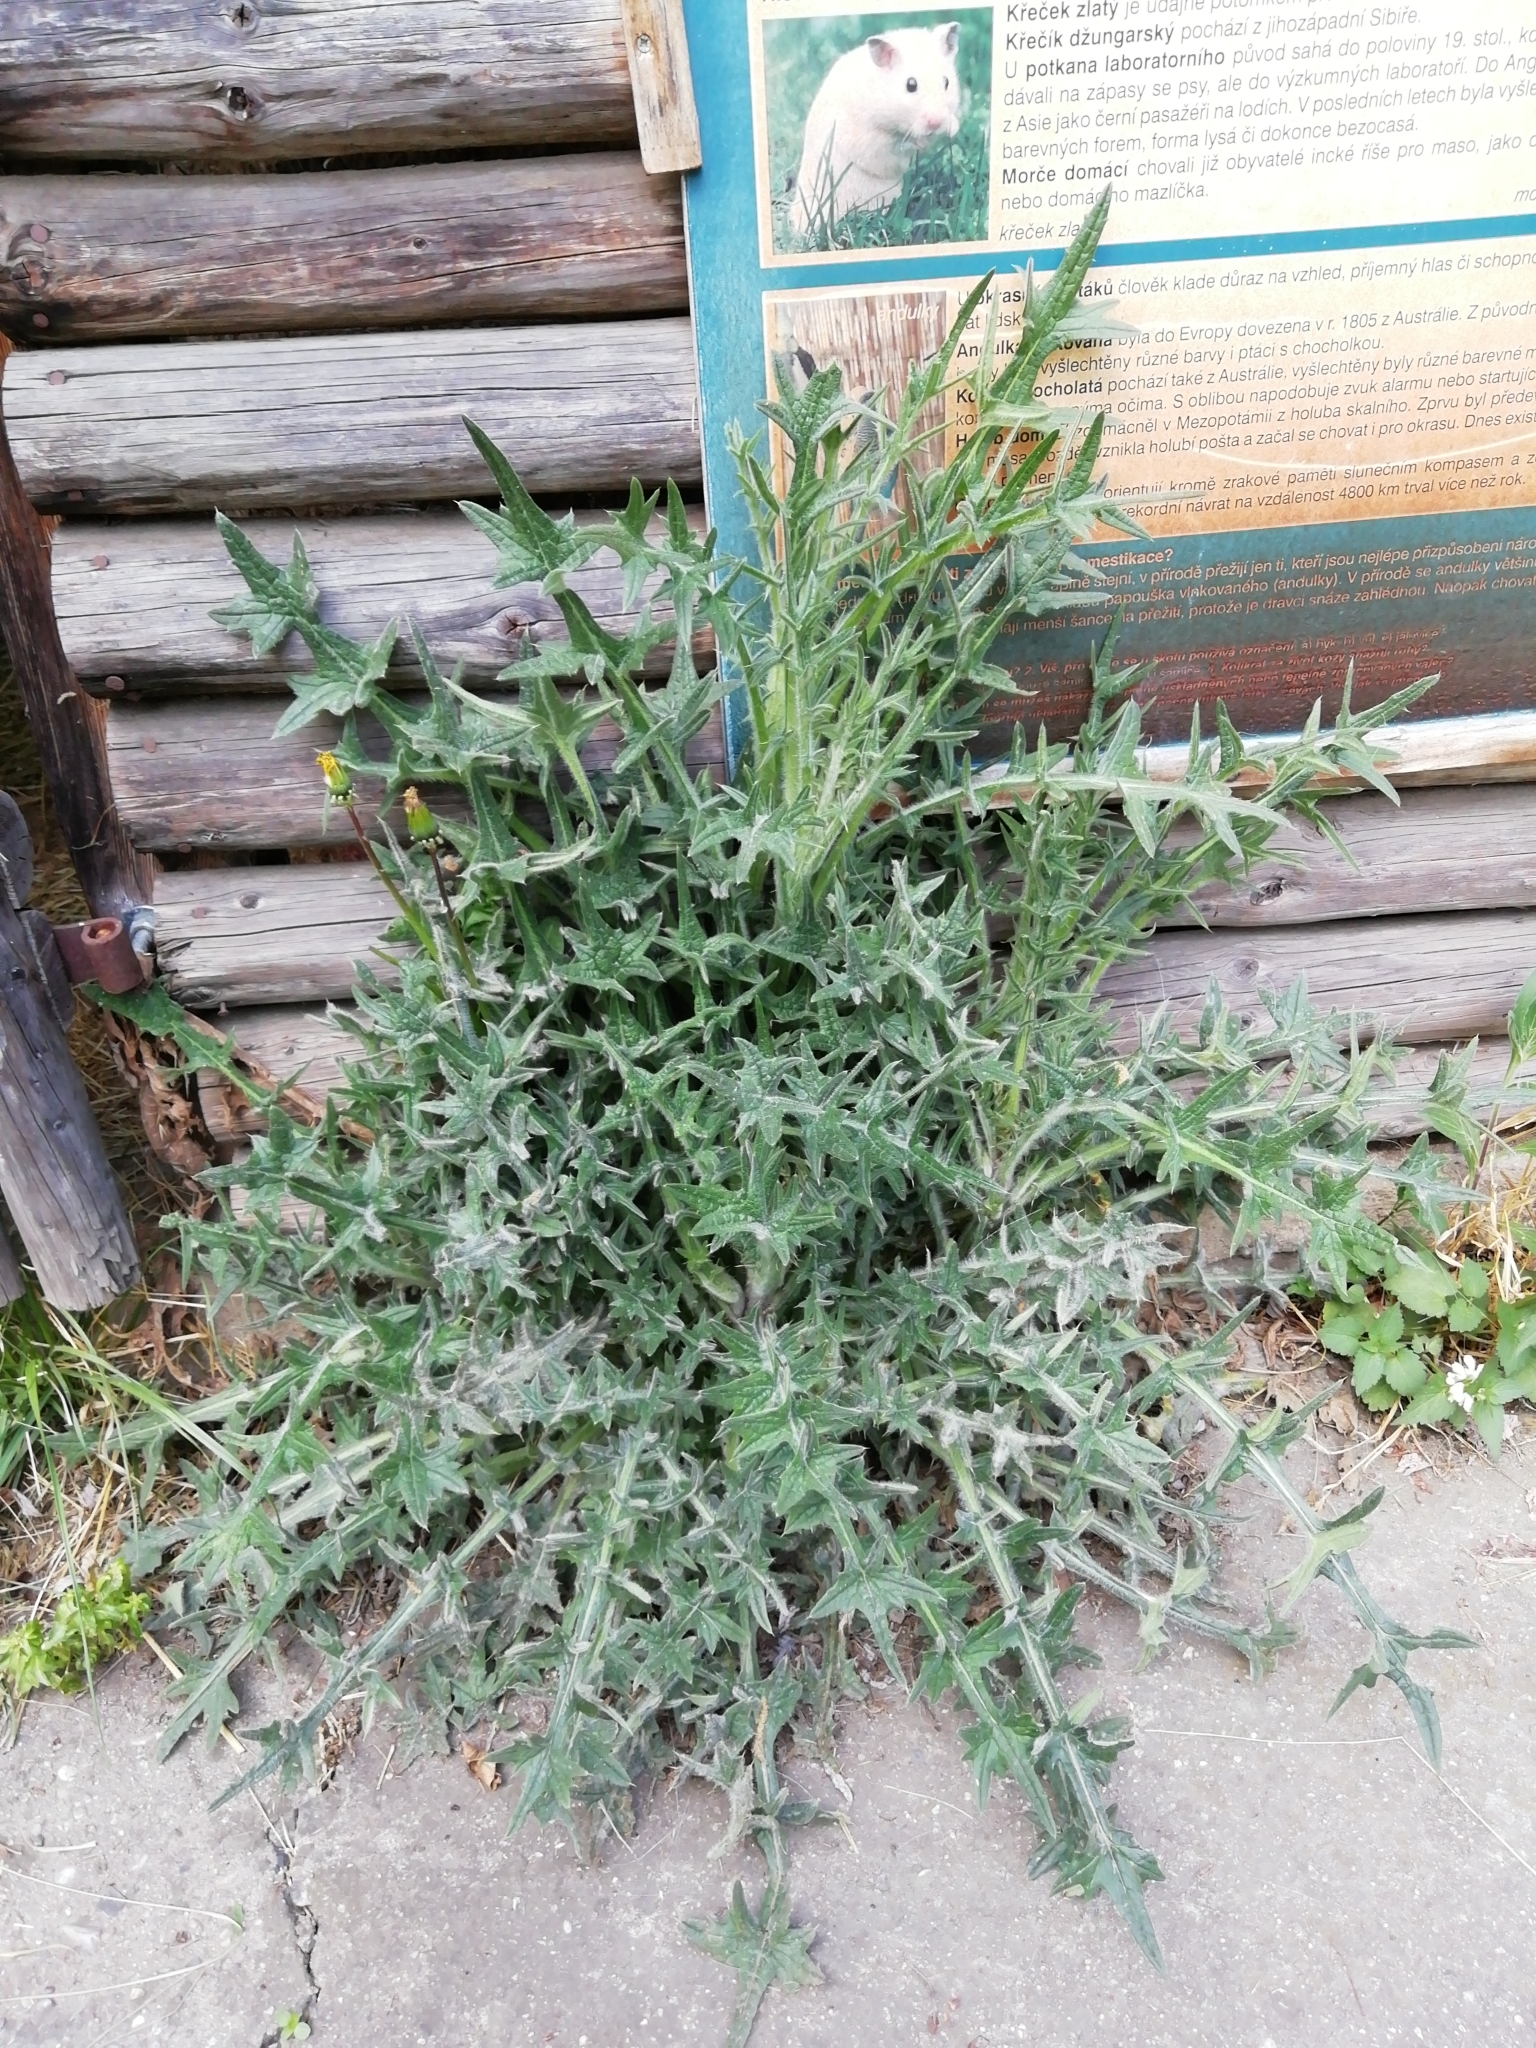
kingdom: Plantae
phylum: Tracheophyta
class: Magnoliopsida
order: Asterales
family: Asteraceae
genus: Cirsium
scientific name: Cirsium vulgare
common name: Bull thistle
